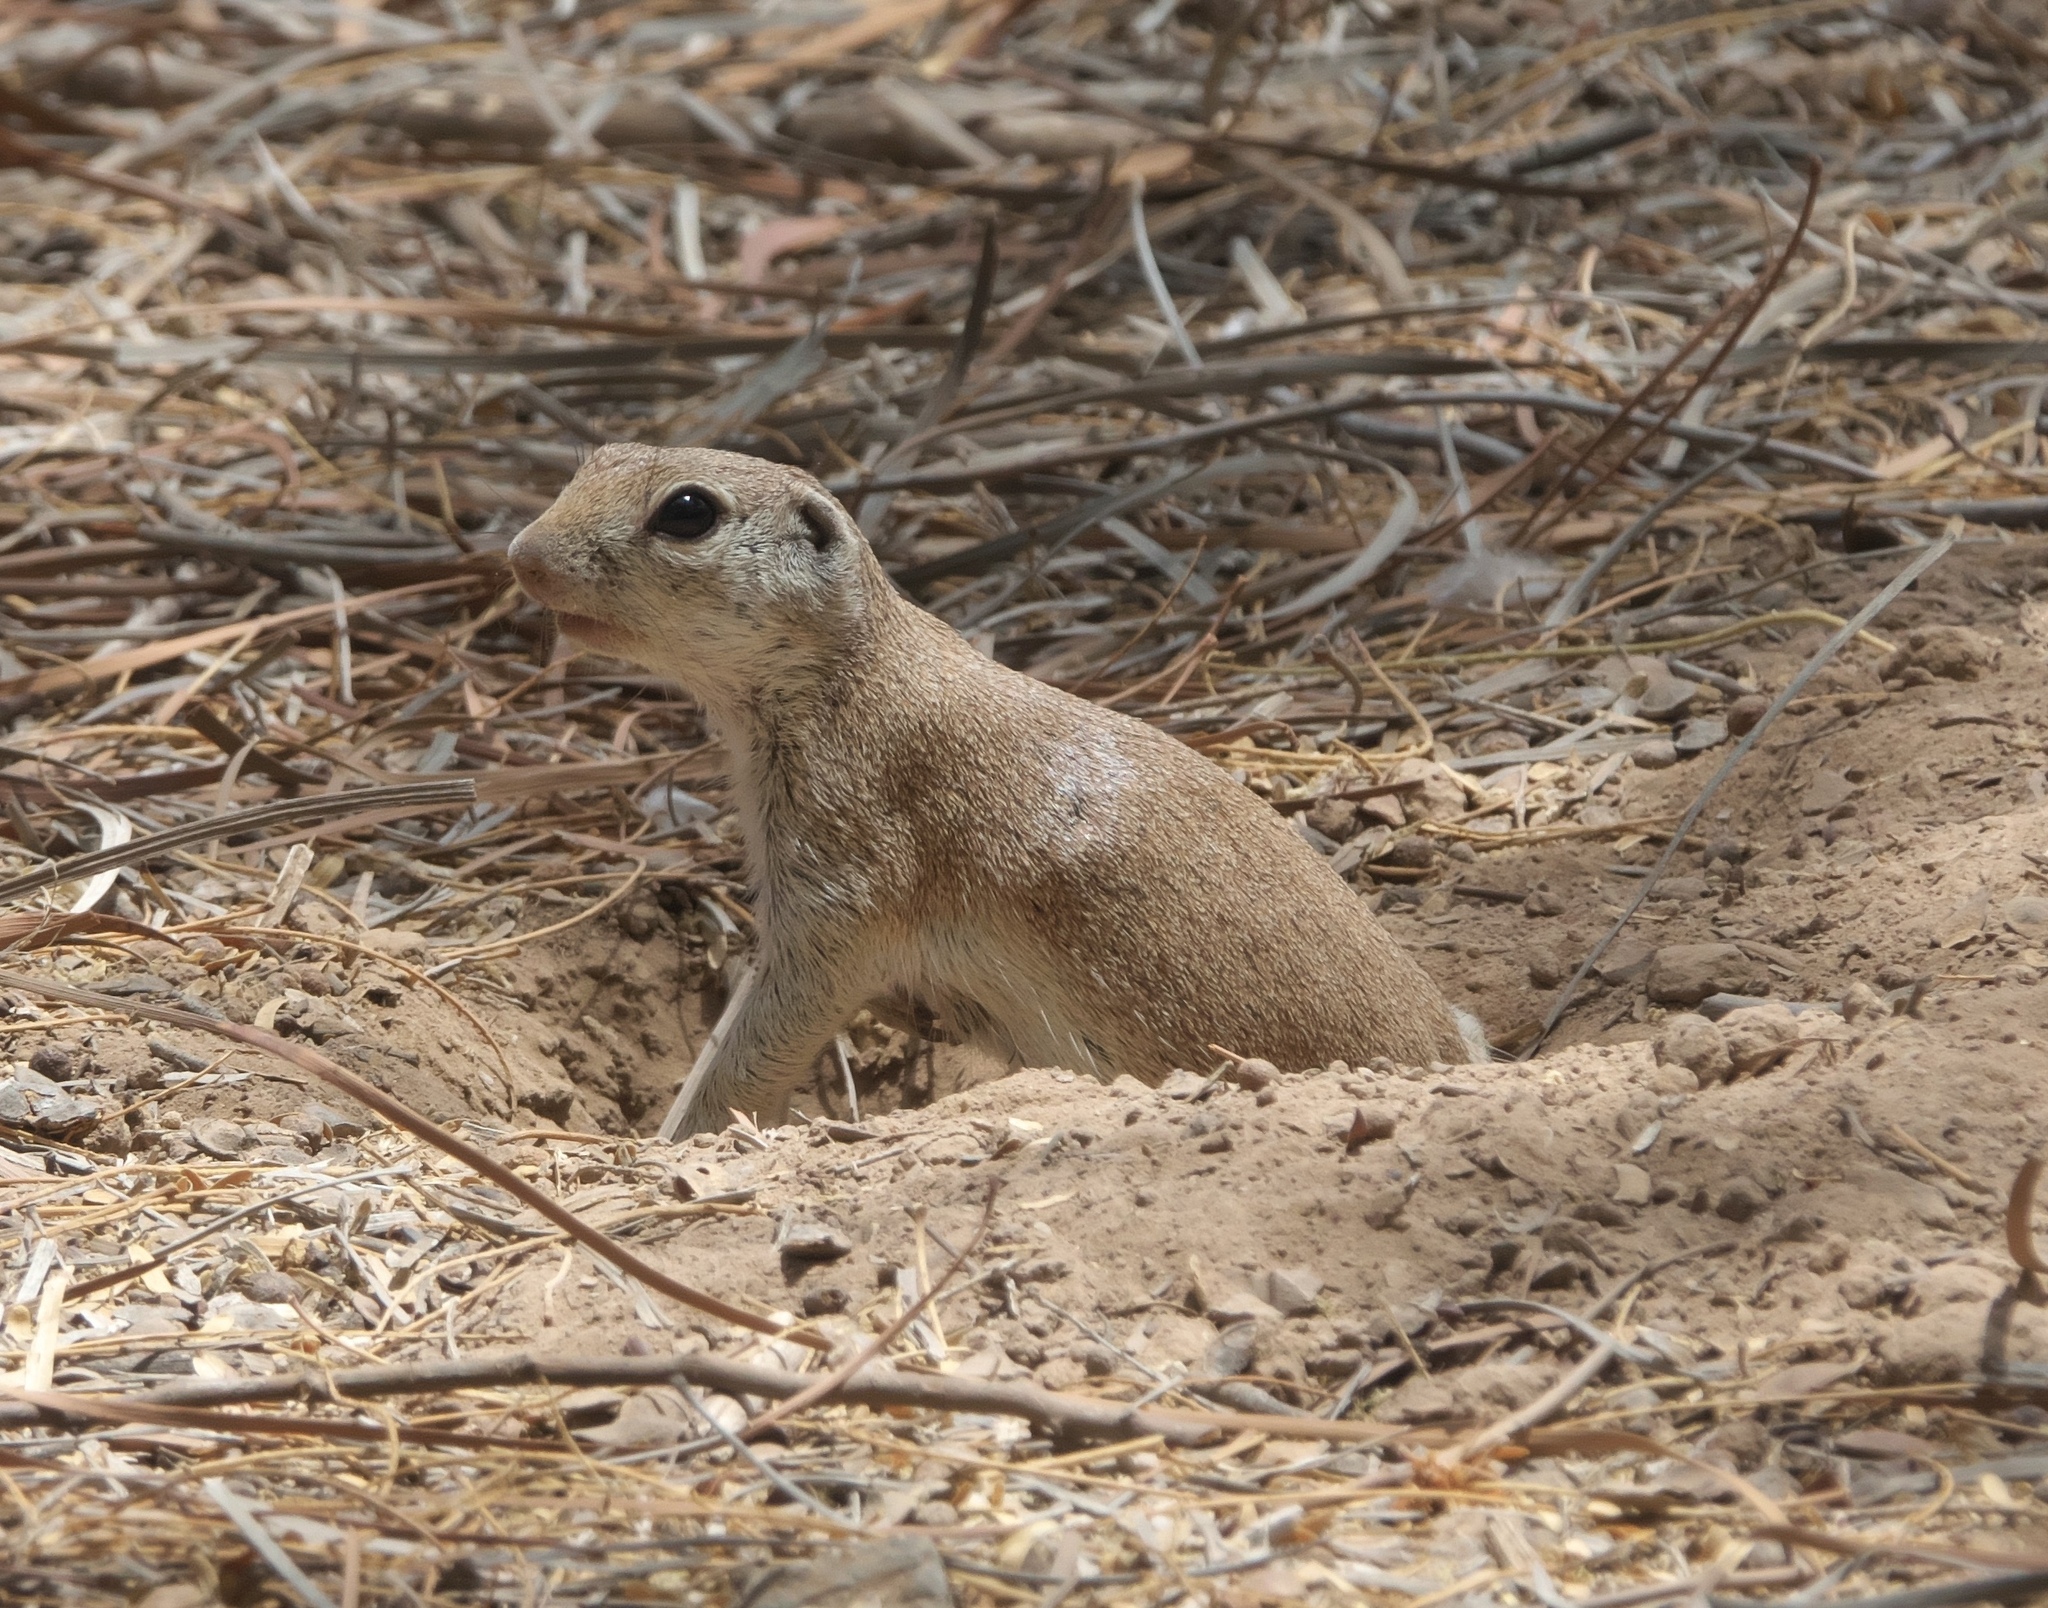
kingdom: Animalia
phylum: Chordata
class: Mammalia
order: Rodentia
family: Sciuridae
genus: Xerospermophilus
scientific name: Xerospermophilus tereticaudus
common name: Round-tailed ground squirrel
